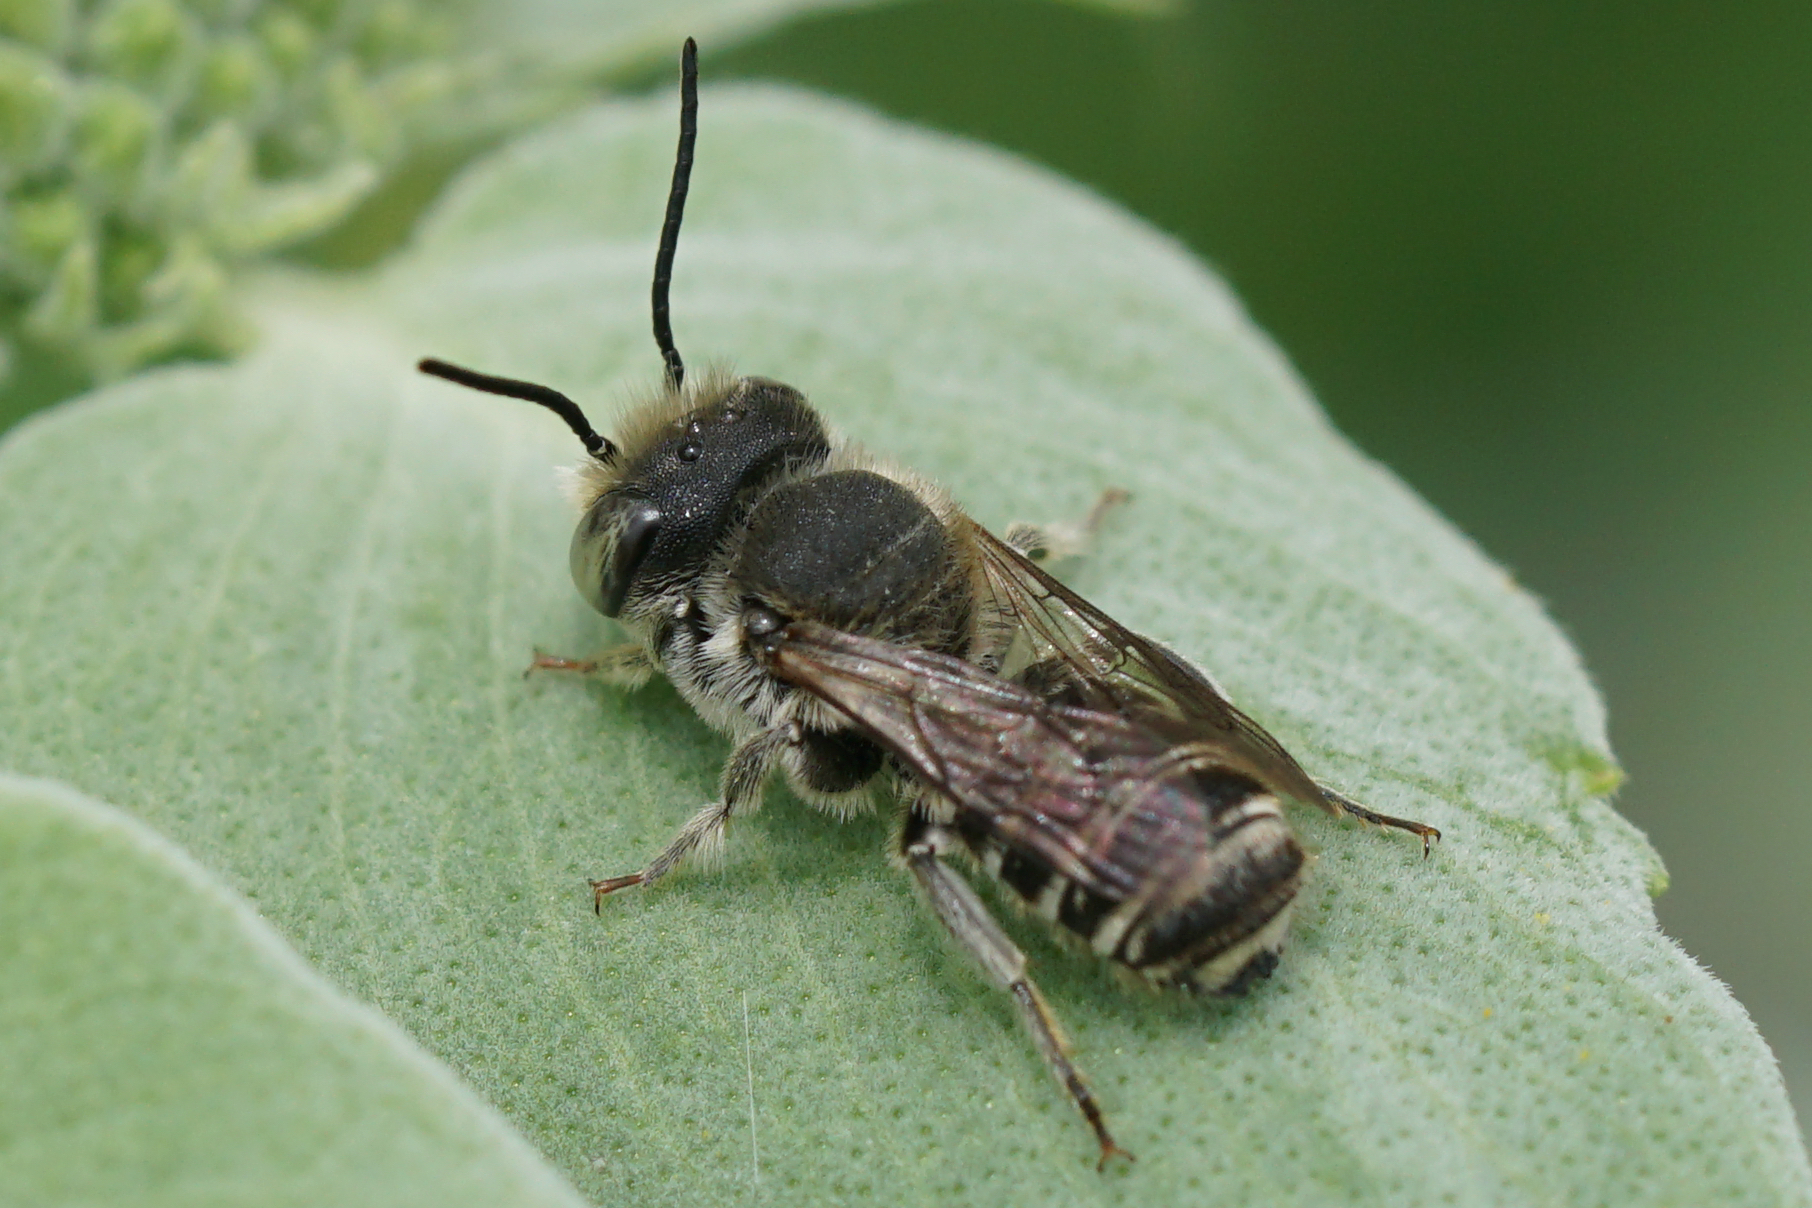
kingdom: Animalia
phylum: Arthropoda
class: Insecta
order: Hymenoptera
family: Megachilidae
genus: Megachile
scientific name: Megachile rotundata
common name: Alfalfa leafcutting bee
